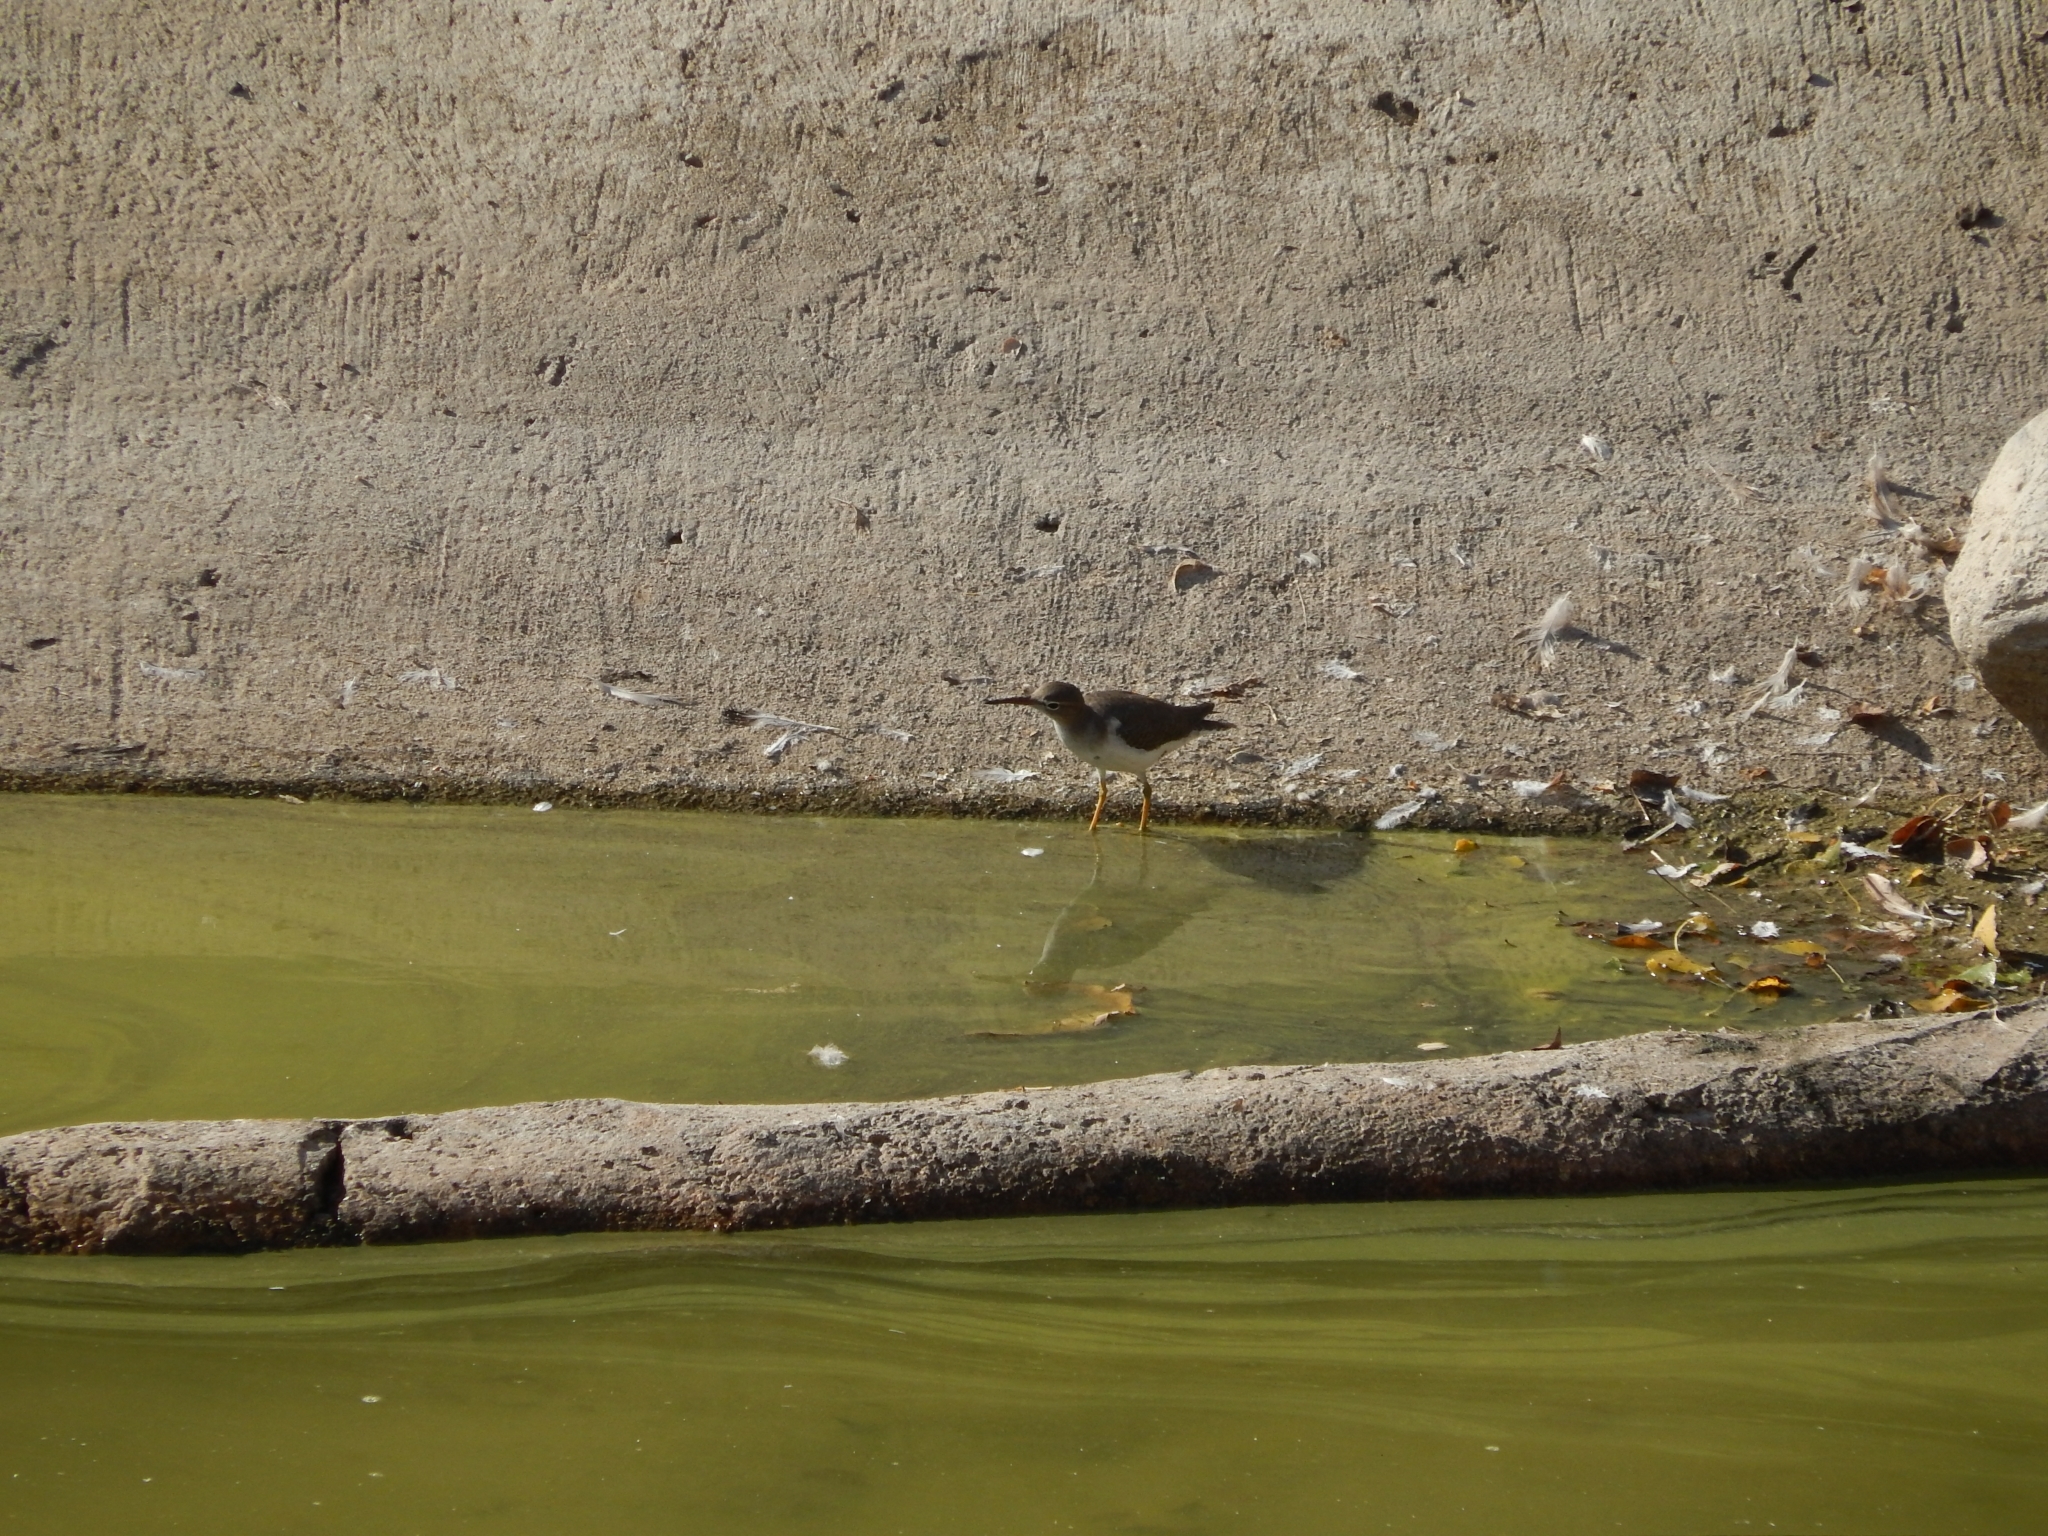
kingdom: Animalia
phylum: Chordata
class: Aves
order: Charadriiformes
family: Scolopacidae
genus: Actitis
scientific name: Actitis macularius
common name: Spotted sandpiper
